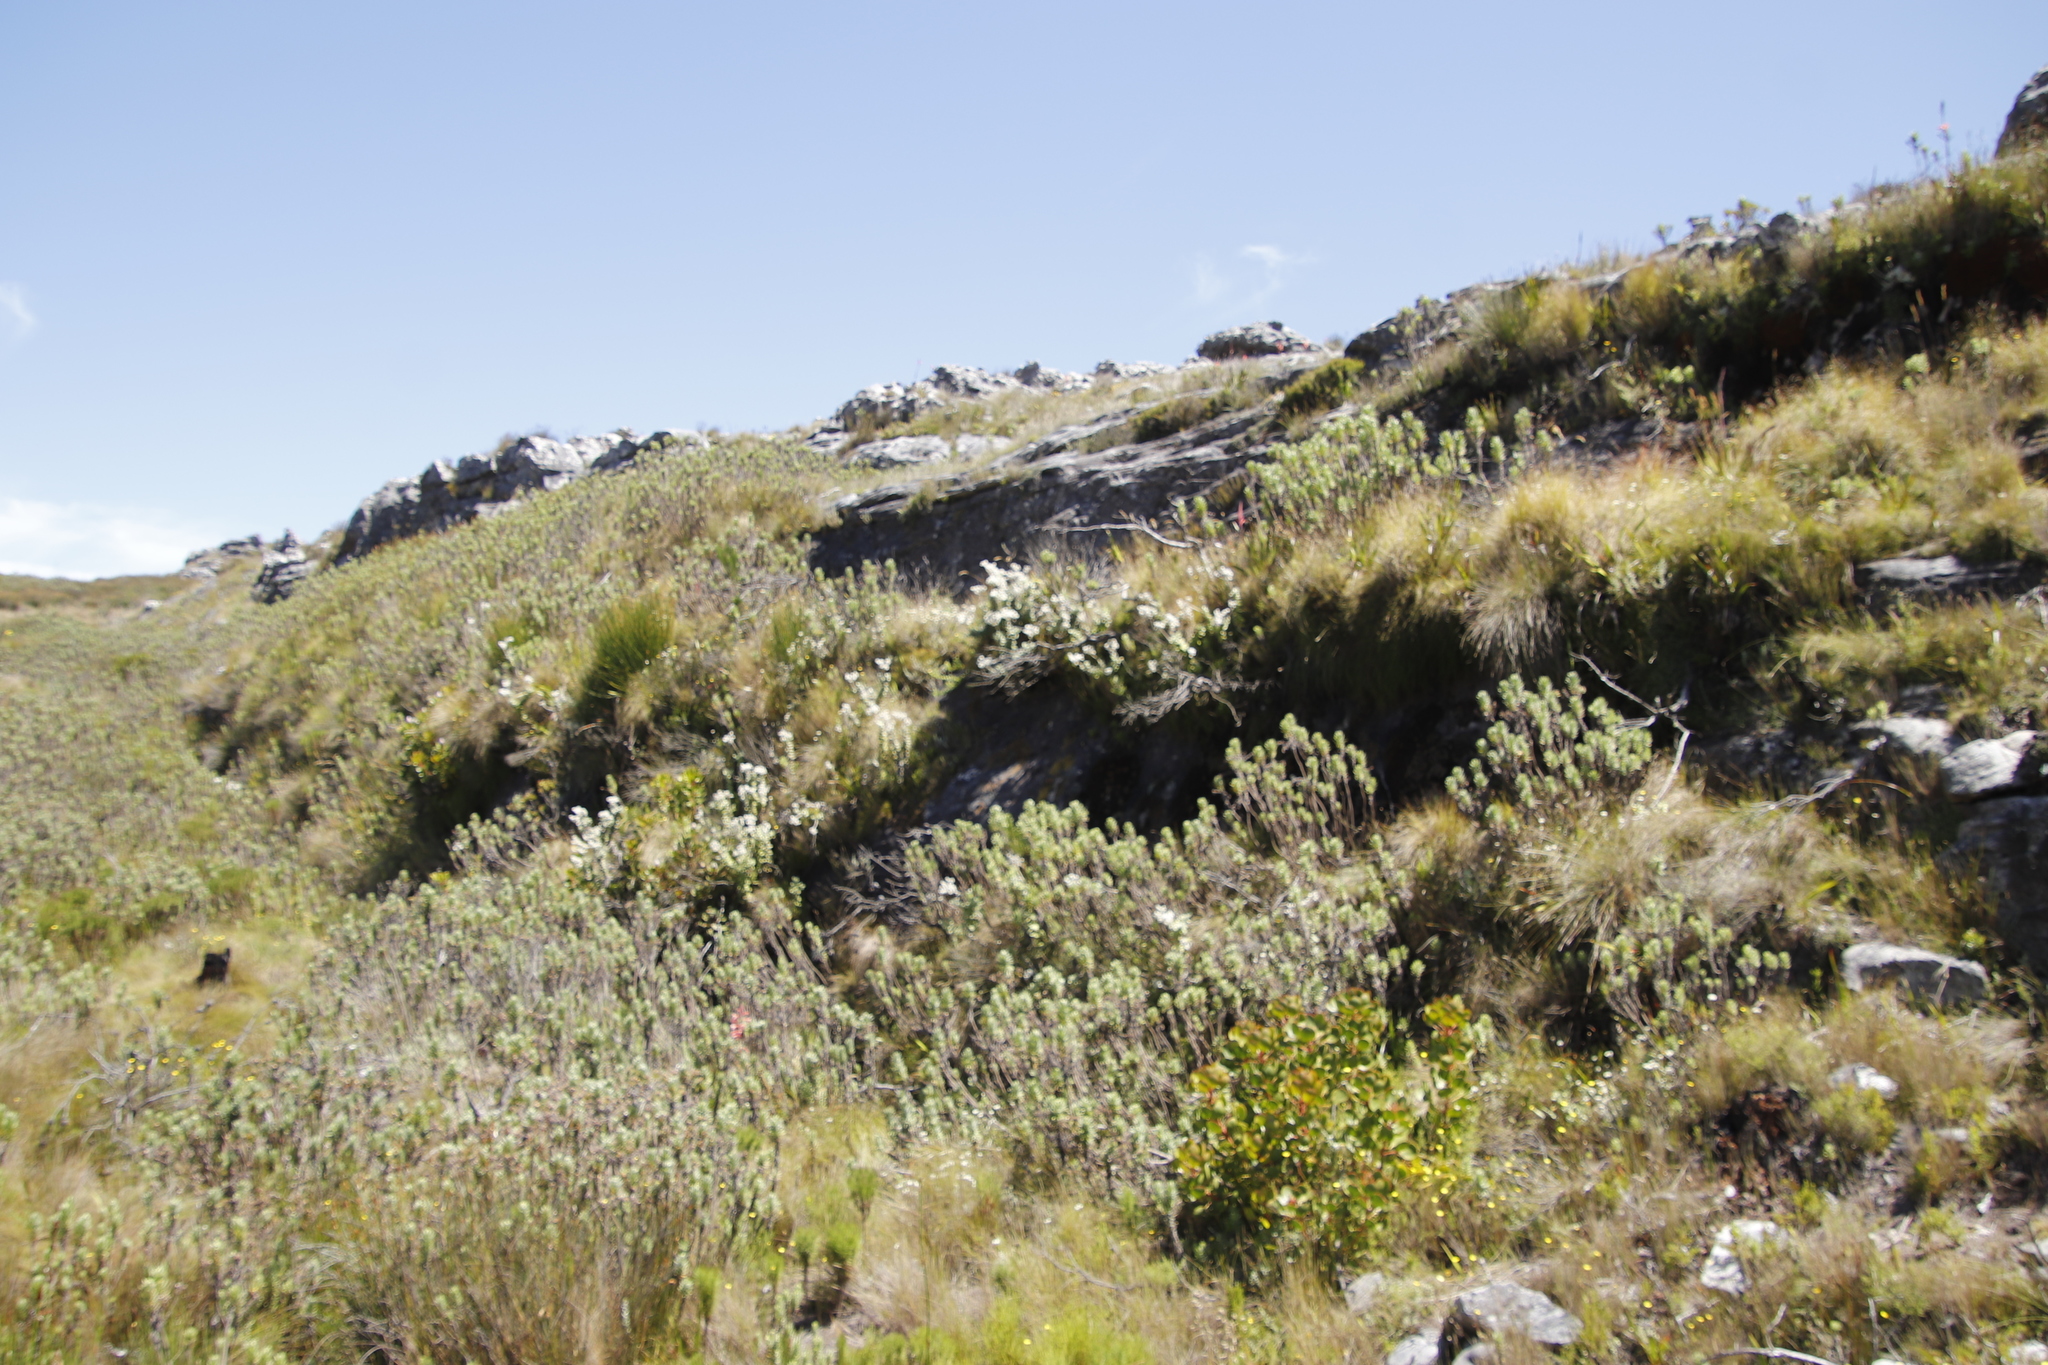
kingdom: Plantae
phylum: Tracheophyta
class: Magnoliopsida
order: Asterales
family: Asteraceae
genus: Helichrysum
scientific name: Helichrysum fruticans
